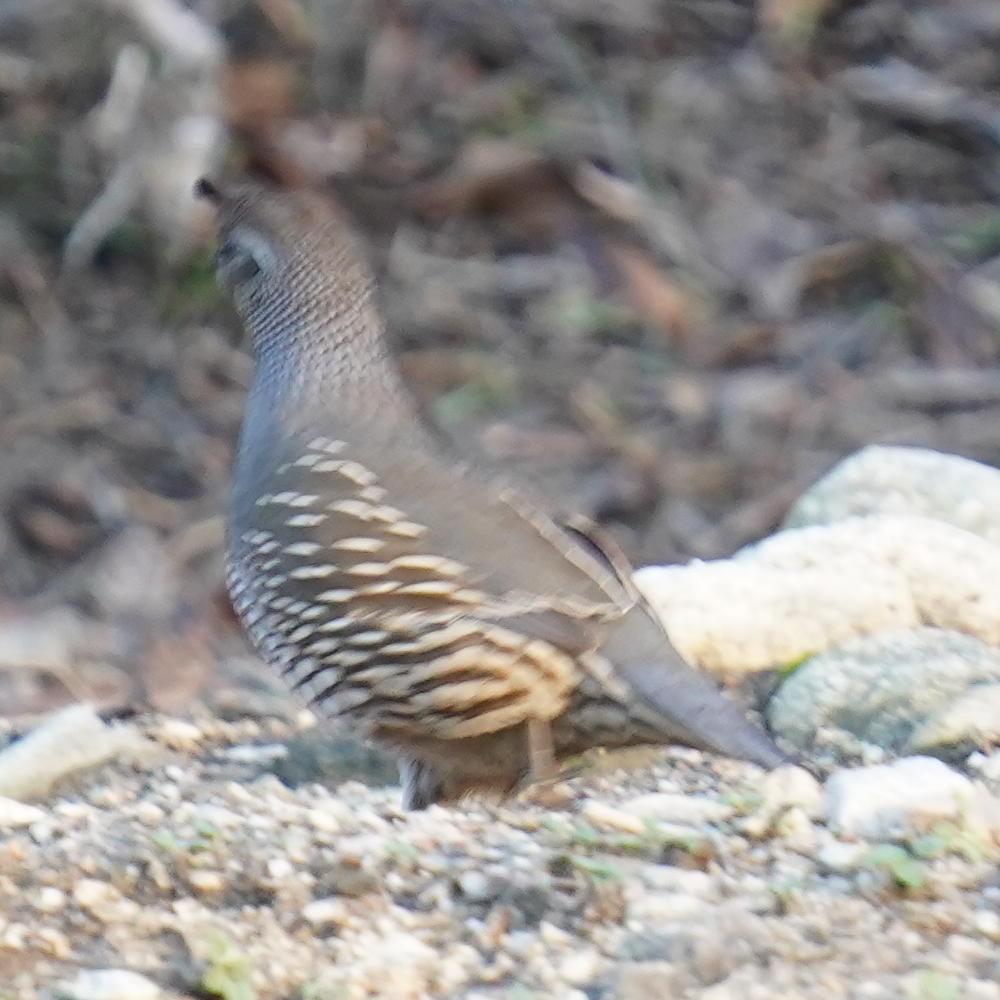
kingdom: Animalia
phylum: Chordata
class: Aves
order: Galliformes
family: Odontophoridae
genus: Callipepla
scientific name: Callipepla californica
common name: California quail
